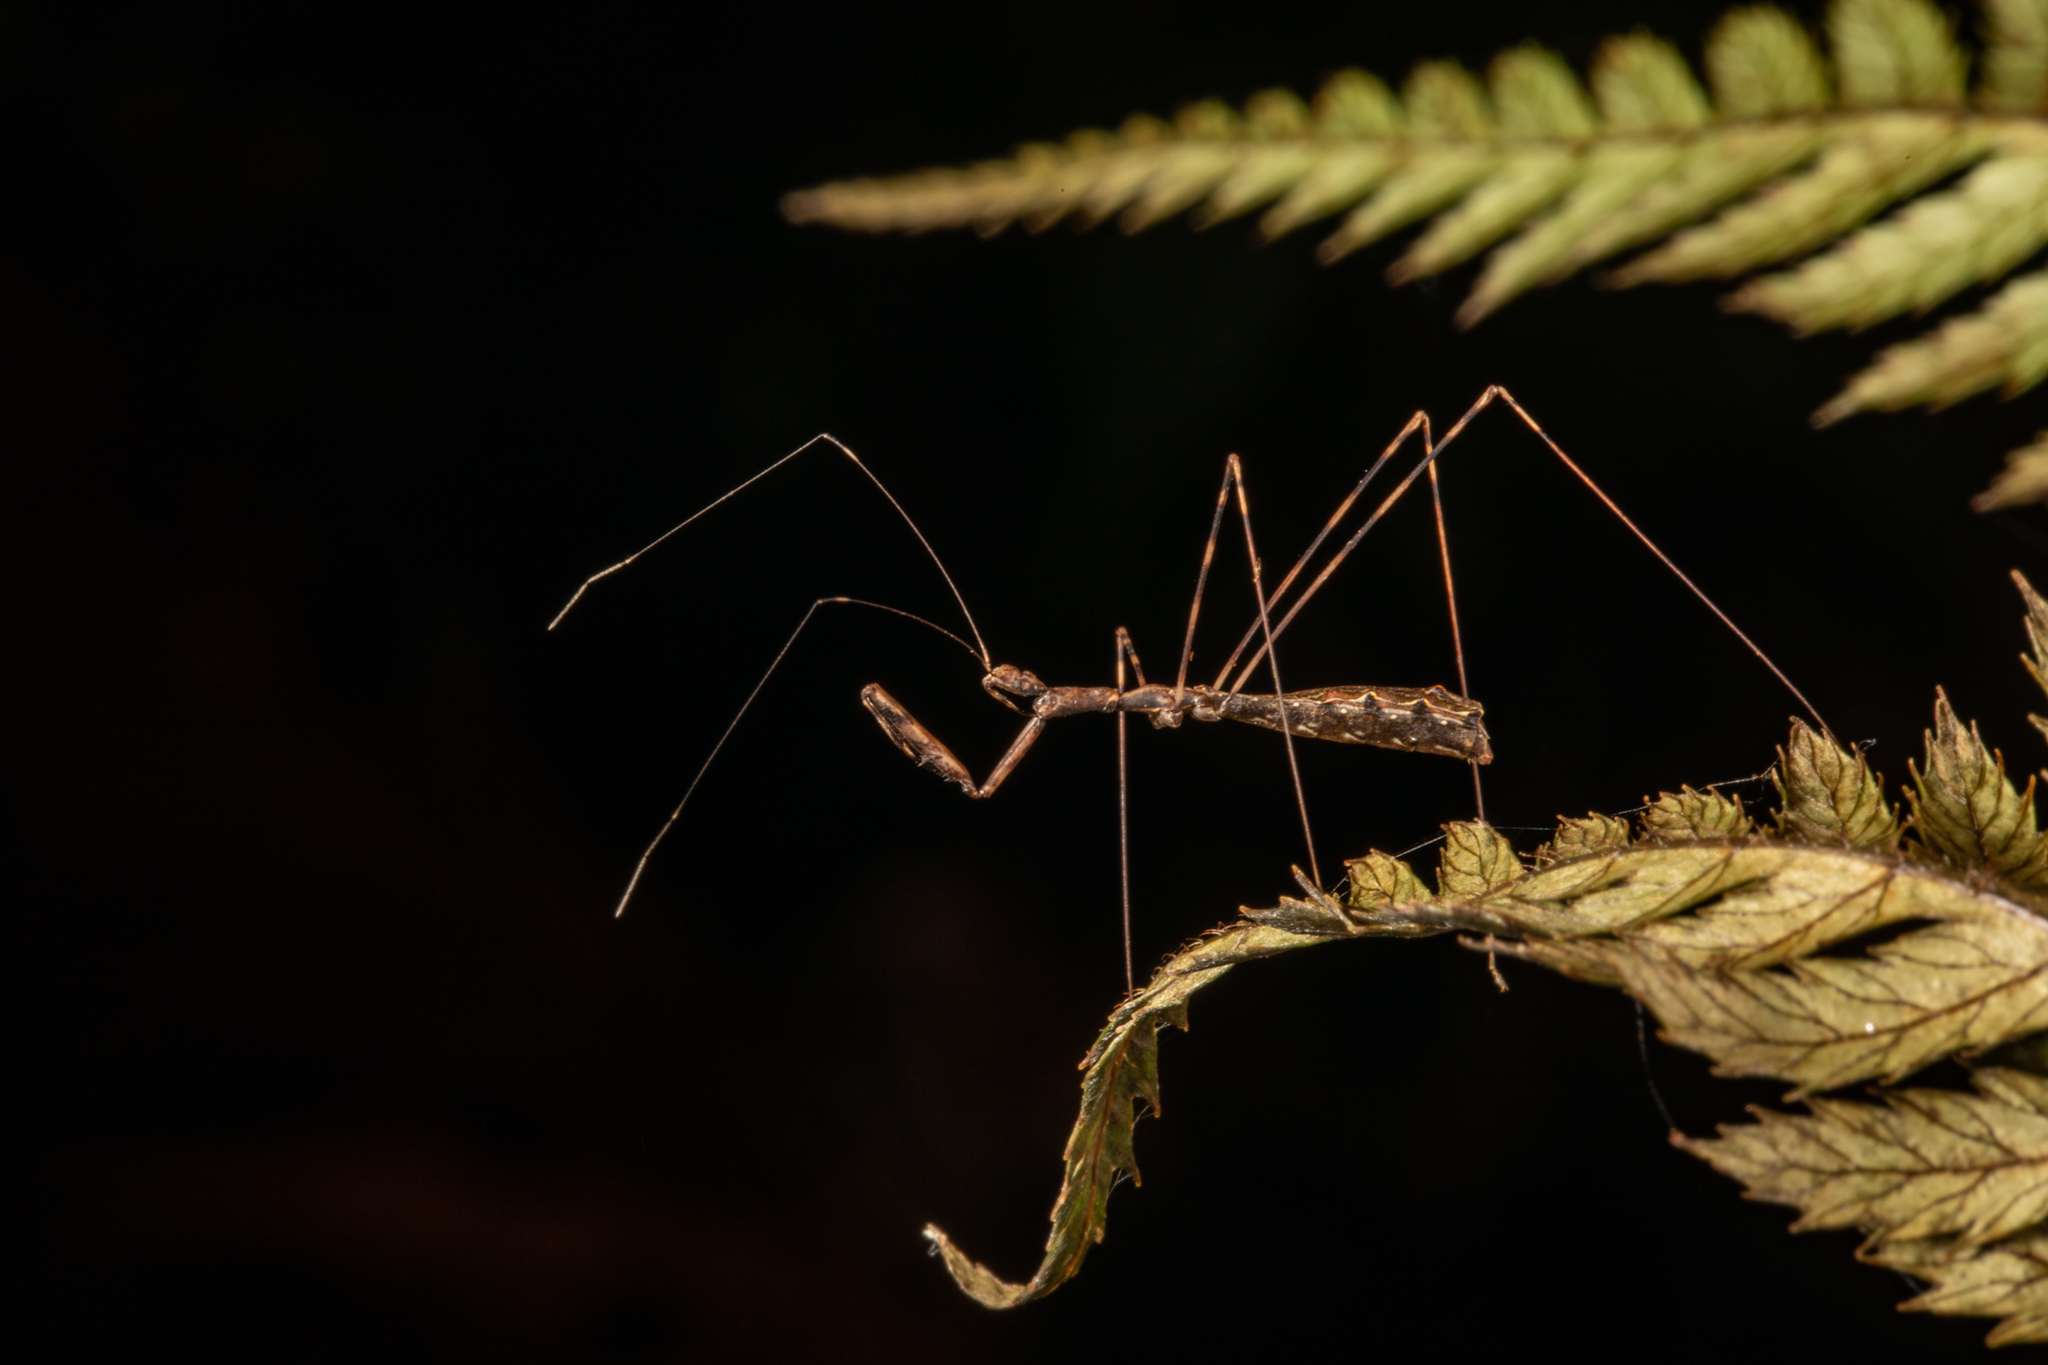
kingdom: Animalia
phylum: Arthropoda
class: Insecta
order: Hemiptera
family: Reduviidae
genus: Ploiaria
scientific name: Ploiaria antipodum
